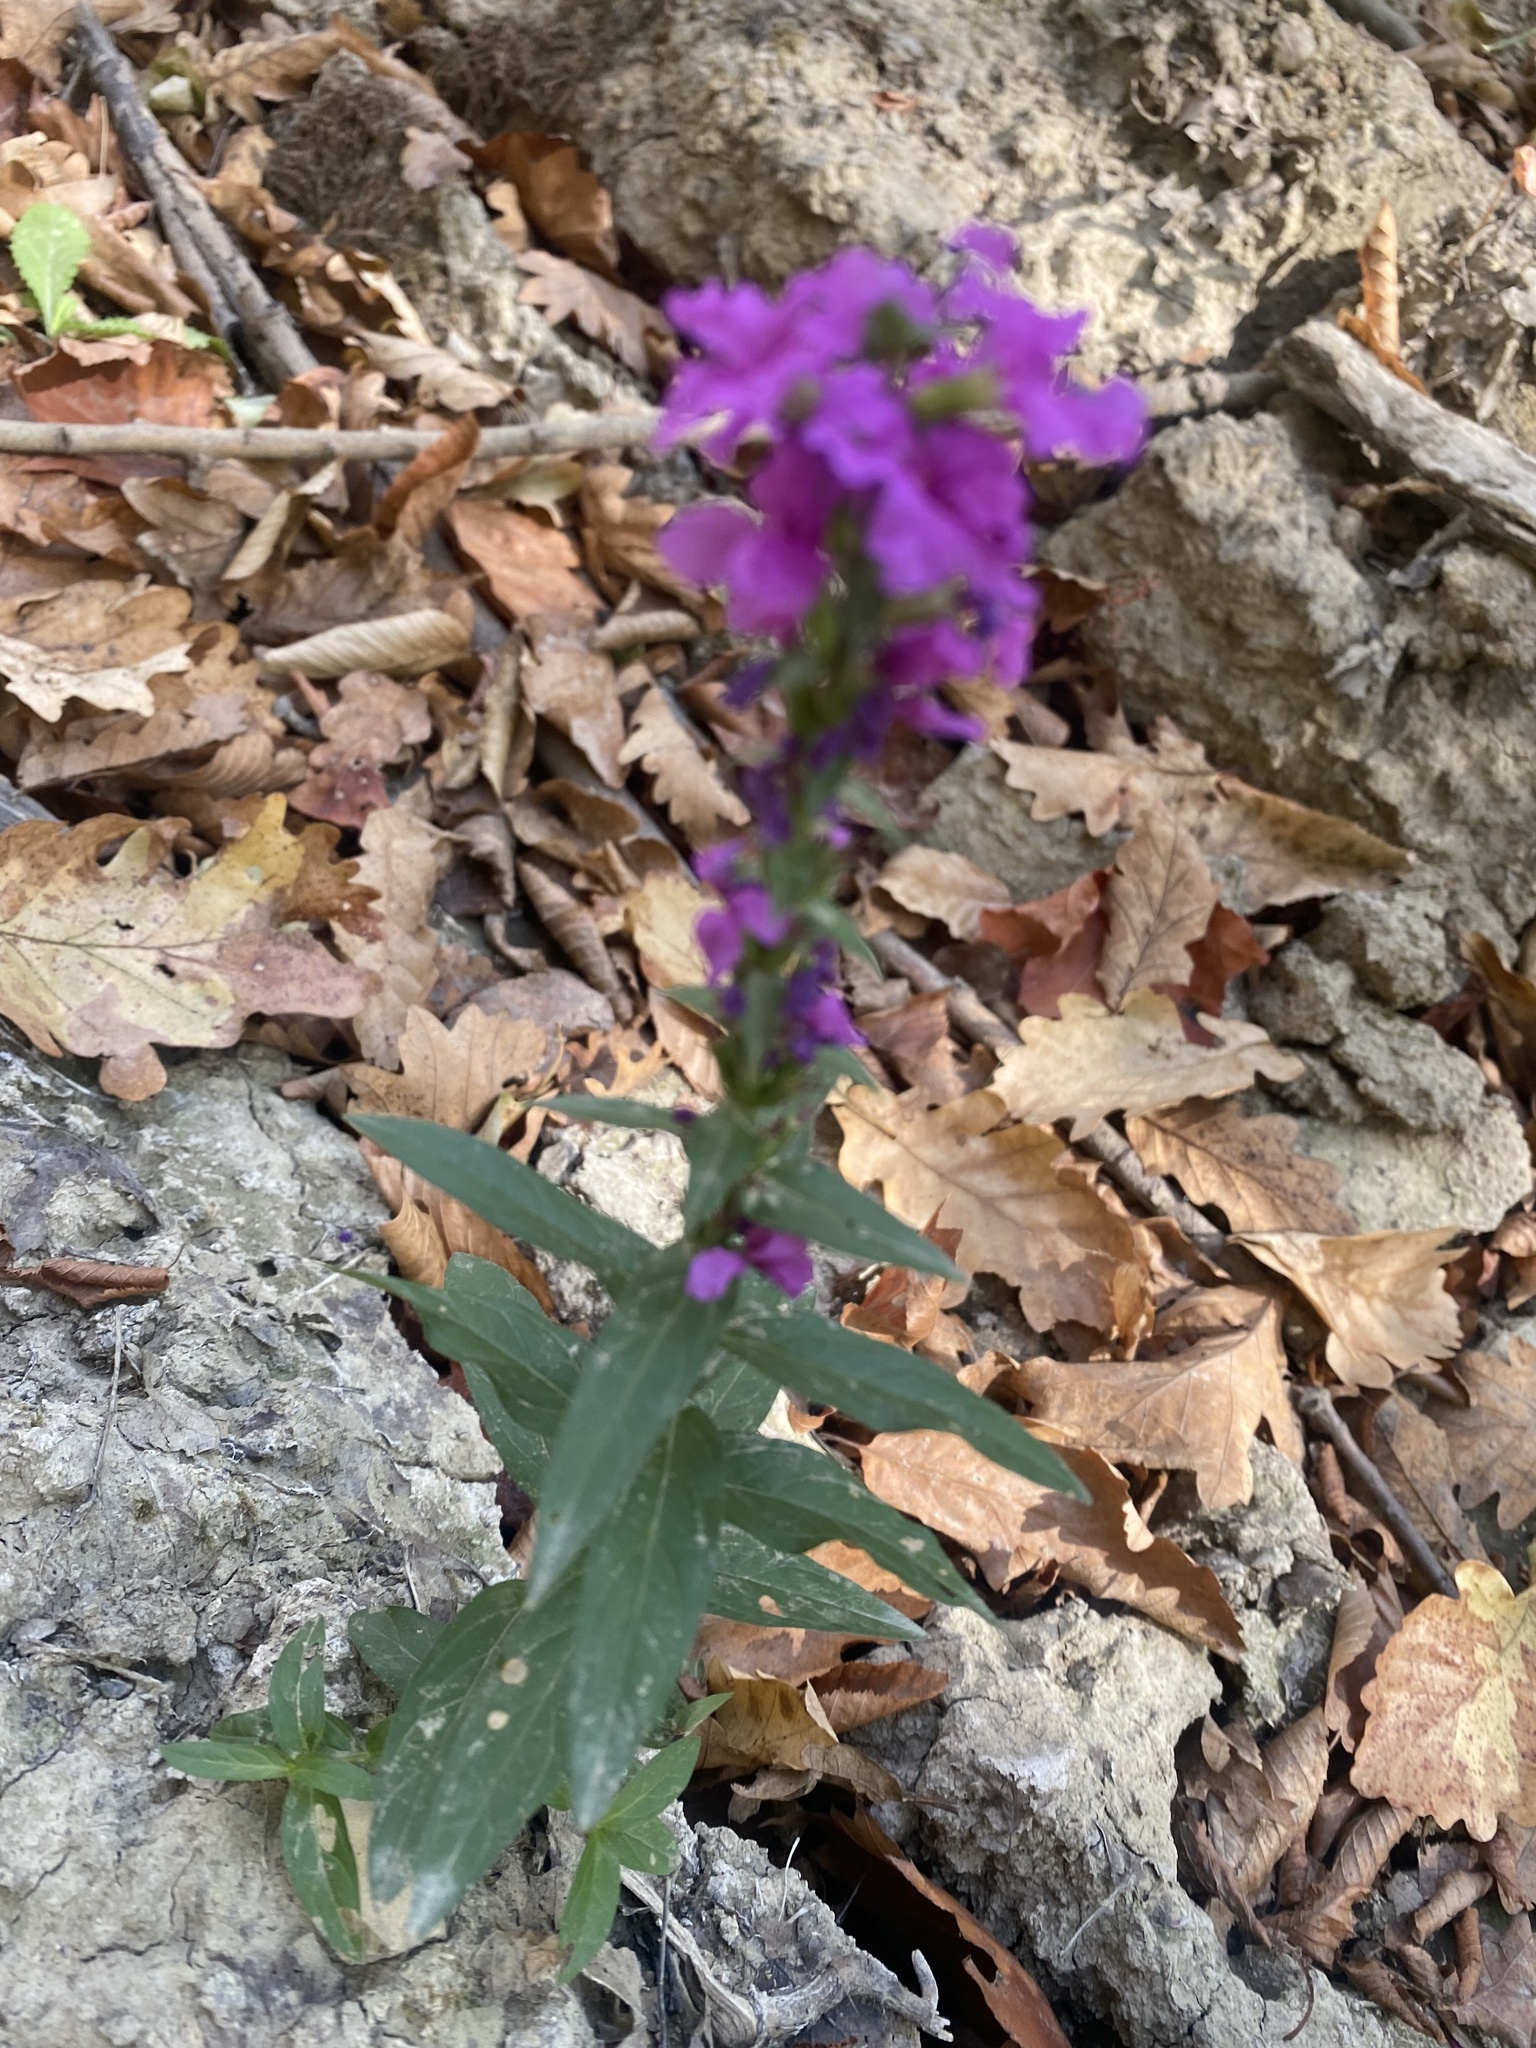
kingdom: Plantae
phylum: Tracheophyta
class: Magnoliopsida
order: Myrtales
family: Lythraceae
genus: Lythrum
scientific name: Lythrum salicaria
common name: Purple loosestrife
